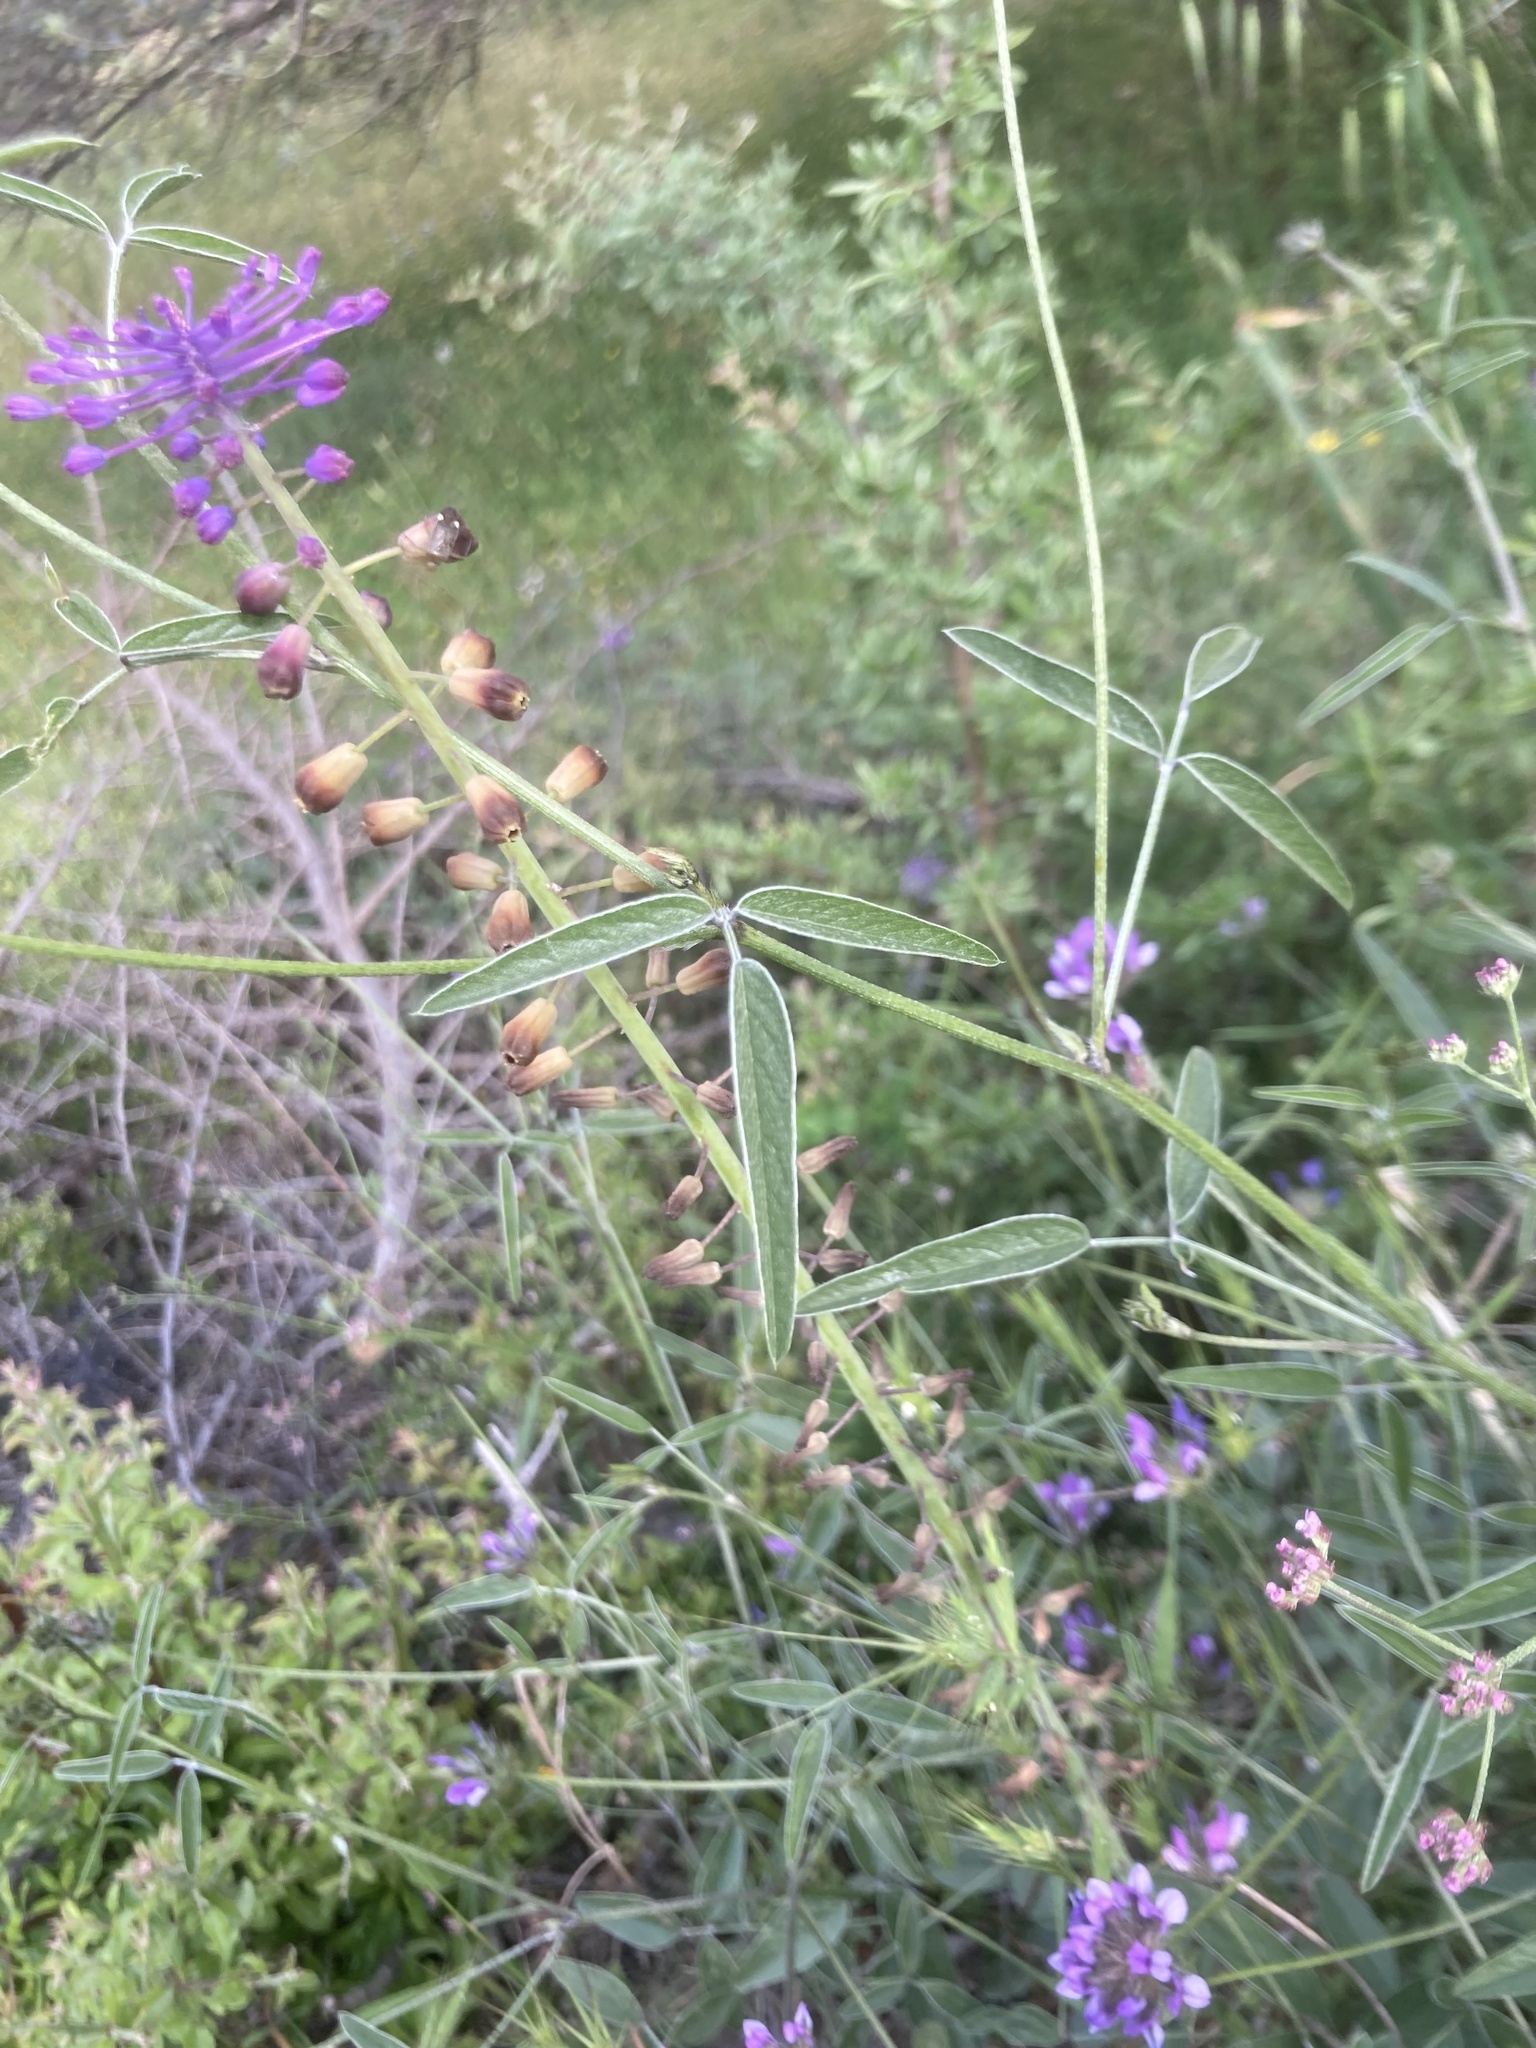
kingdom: Plantae
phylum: Tracheophyta
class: Liliopsida
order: Asparagales
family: Asparagaceae
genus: Muscari
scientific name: Muscari comosum
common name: Tassel hyacinth
